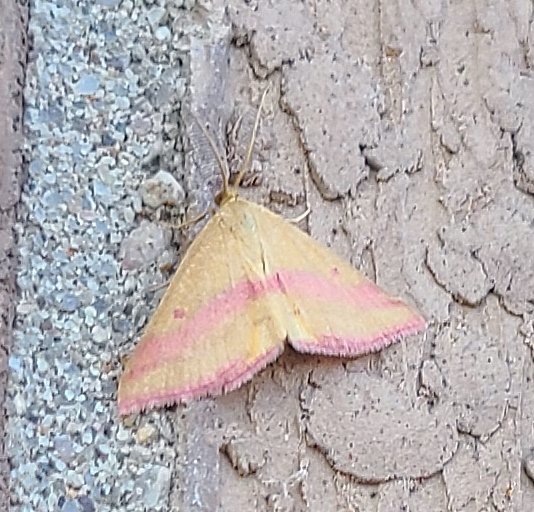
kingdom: Animalia
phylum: Arthropoda
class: Insecta
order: Lepidoptera
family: Geometridae
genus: Haematopis
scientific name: Haematopis grataria
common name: Chickweed geometer
